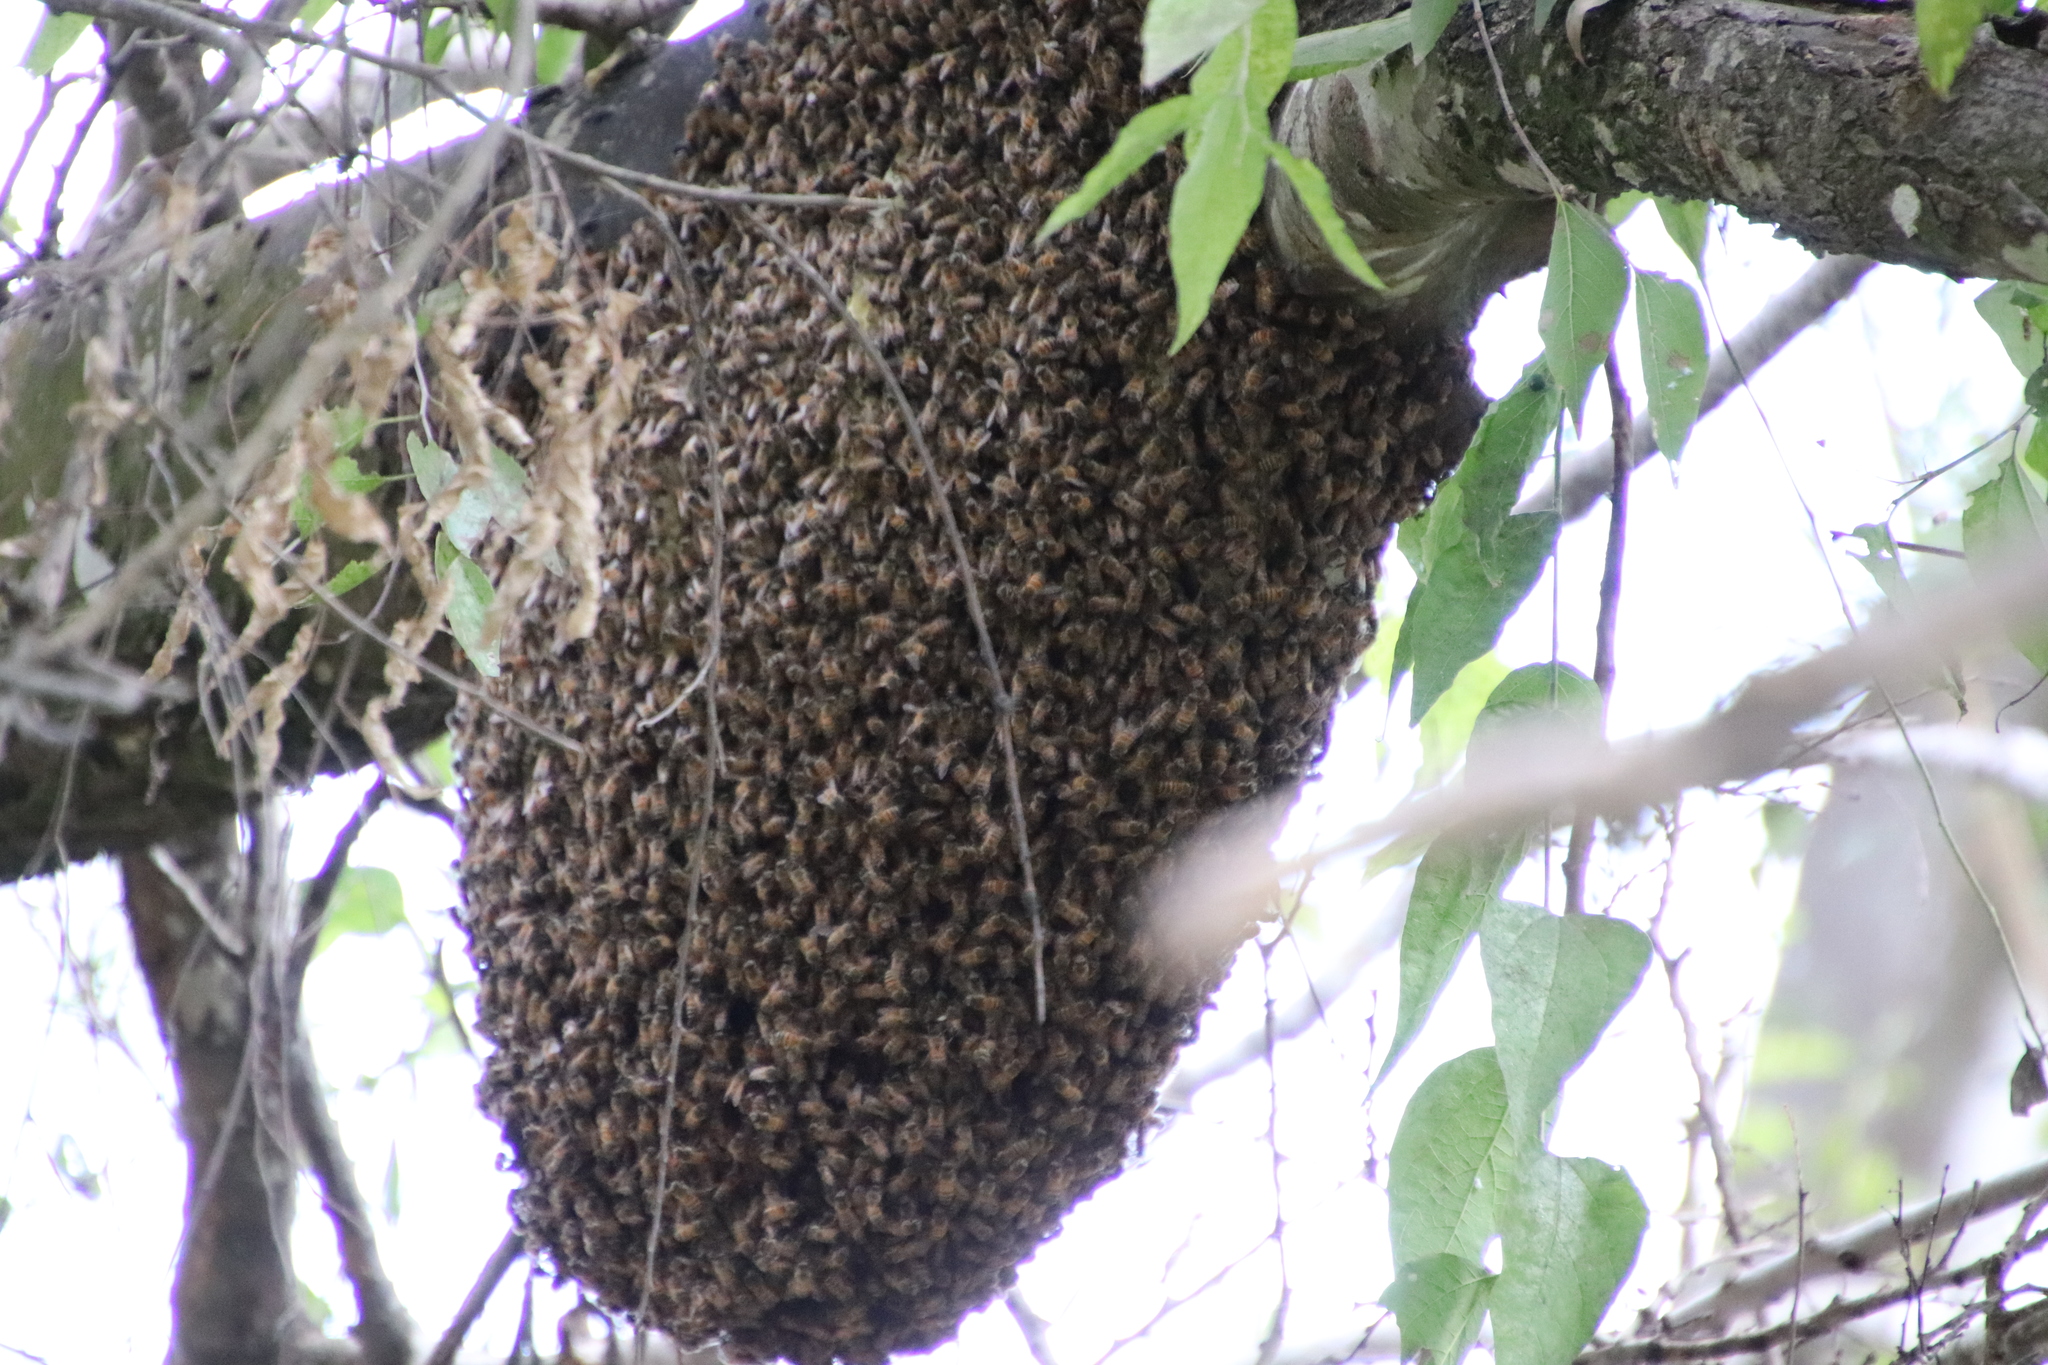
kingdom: Animalia
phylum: Arthropoda
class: Insecta
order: Hymenoptera
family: Apidae
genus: Apis
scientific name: Apis mellifera
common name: Honey bee
